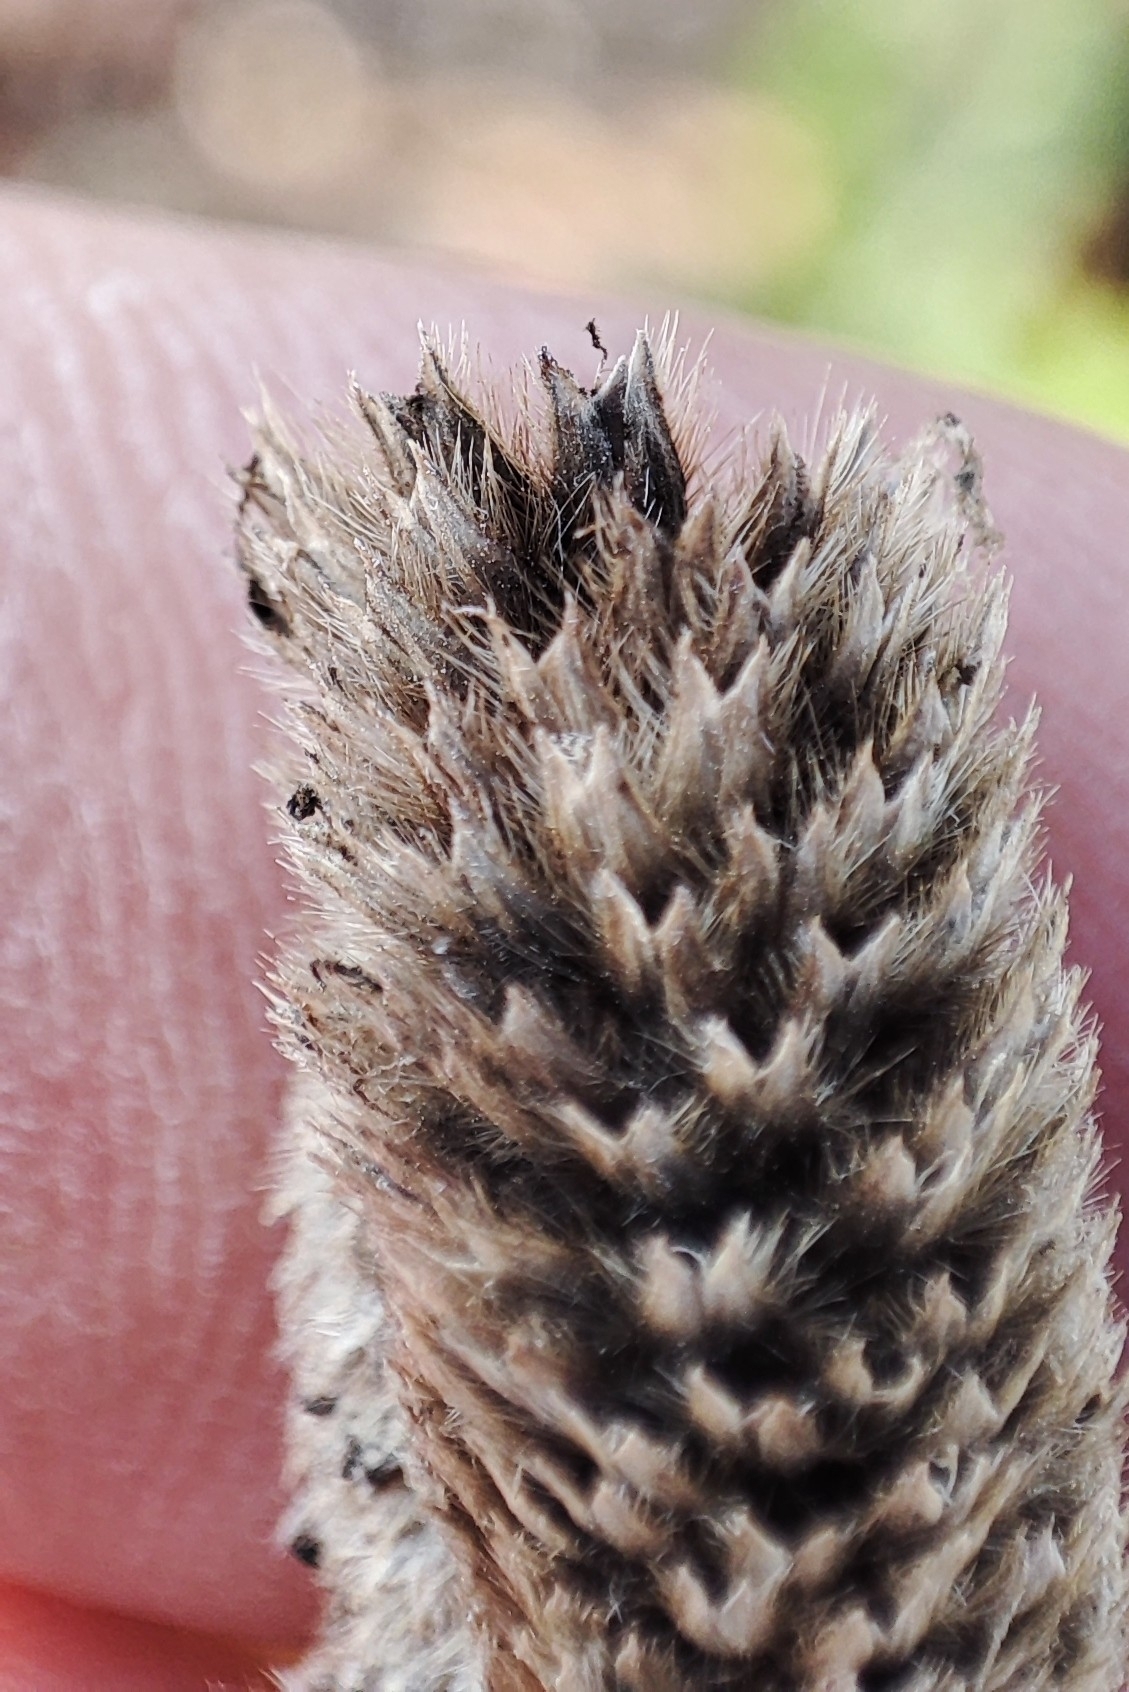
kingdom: Plantae
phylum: Tracheophyta
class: Liliopsida
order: Poales
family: Poaceae
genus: Alopecurus
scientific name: Alopecurus arundinaceus
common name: Creeping meadow foxtail
